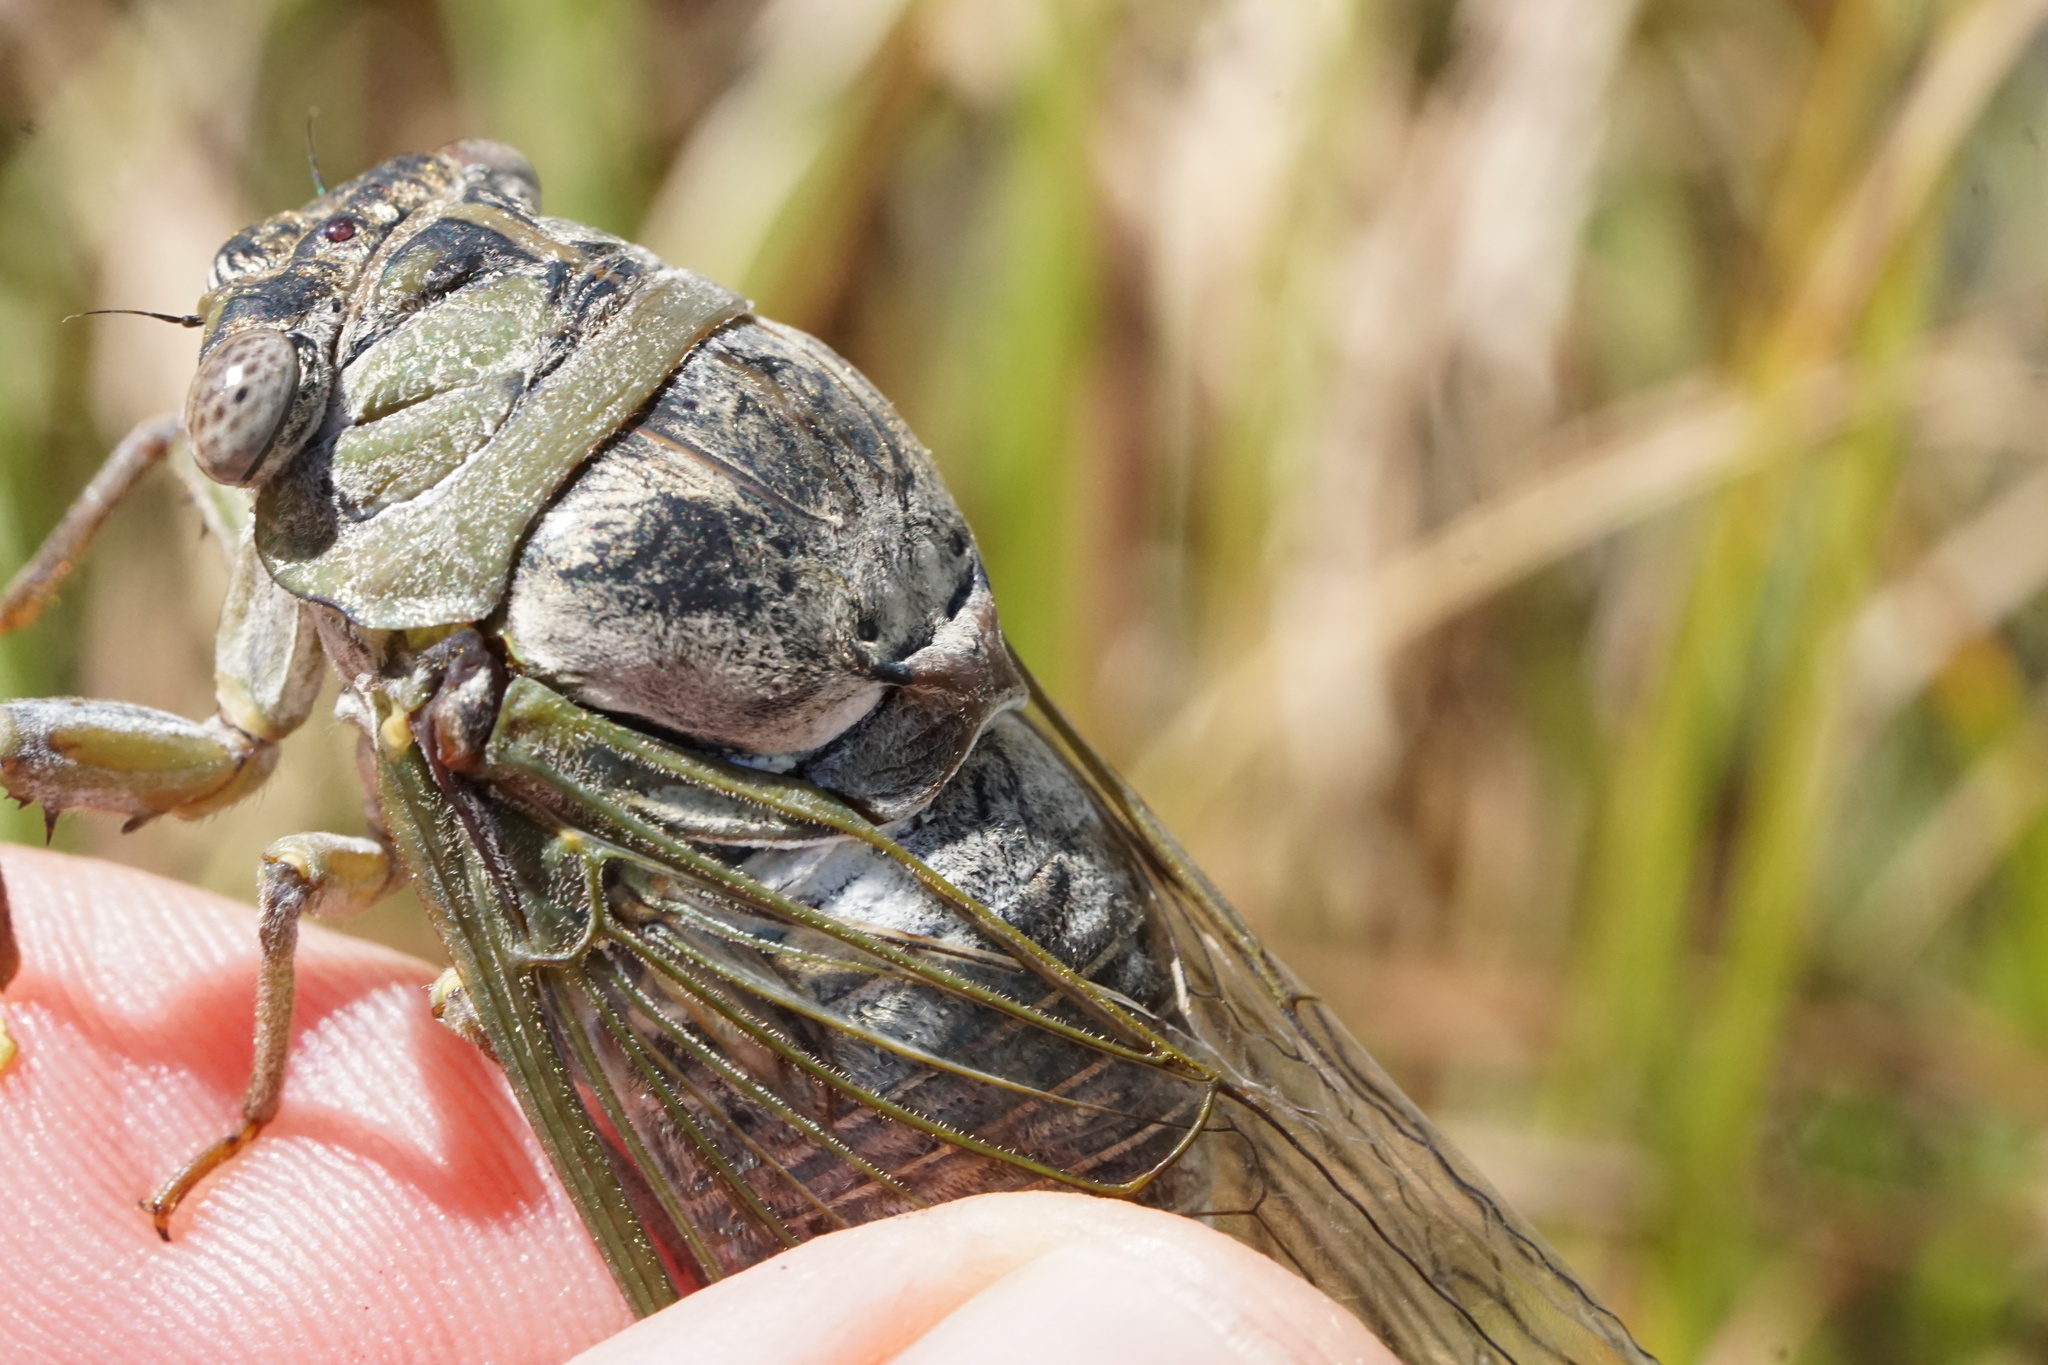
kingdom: Animalia
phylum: Arthropoda
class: Insecta
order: Hemiptera
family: Cicadidae
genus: Diceroprocta
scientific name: Diceroprocta grossa
